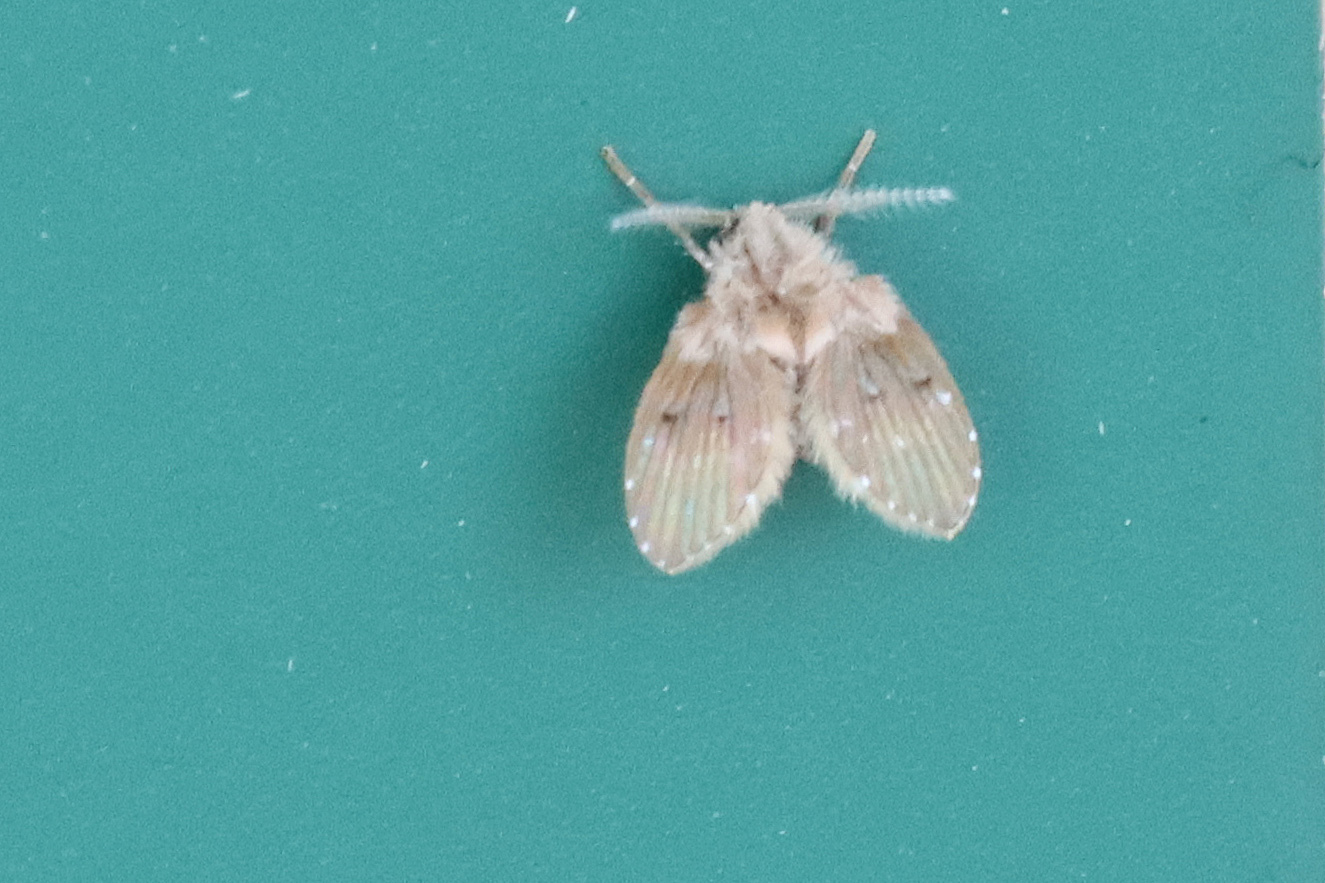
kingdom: Animalia
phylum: Arthropoda
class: Insecta
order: Diptera
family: Psychodidae
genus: Clogmia
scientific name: Clogmia albipunctatus
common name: White-spotted moth fly
